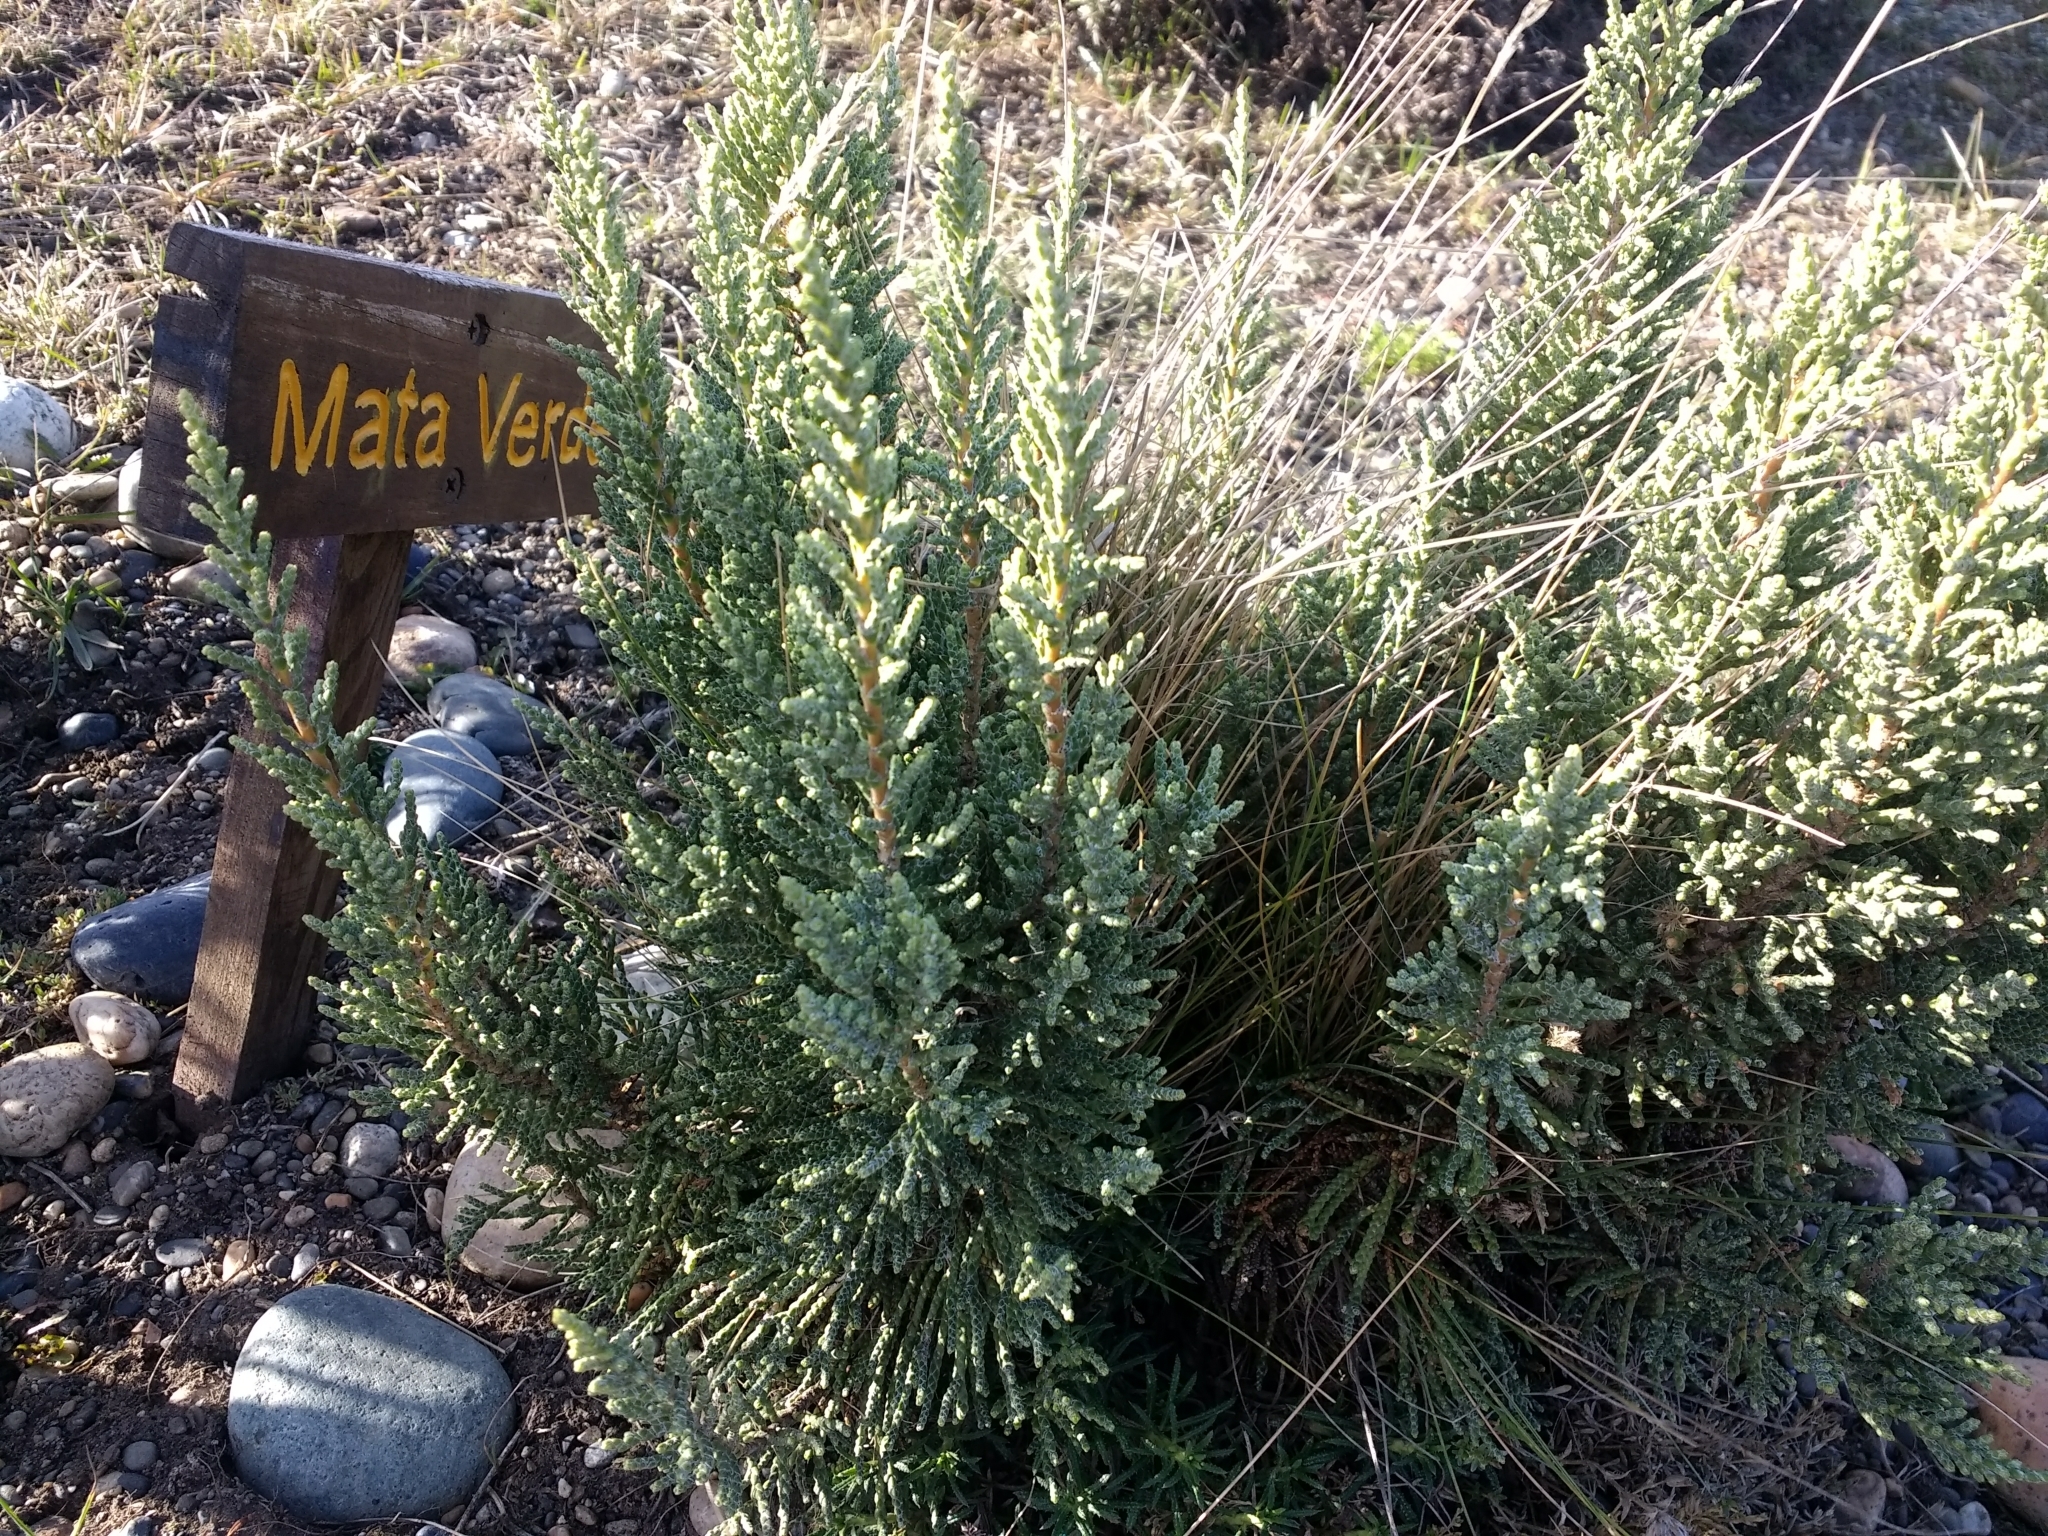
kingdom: Plantae
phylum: Tracheophyta
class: Magnoliopsida
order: Asterales
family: Asteraceae
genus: Lepidophyllum
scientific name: Lepidophyllum cupressiforme
